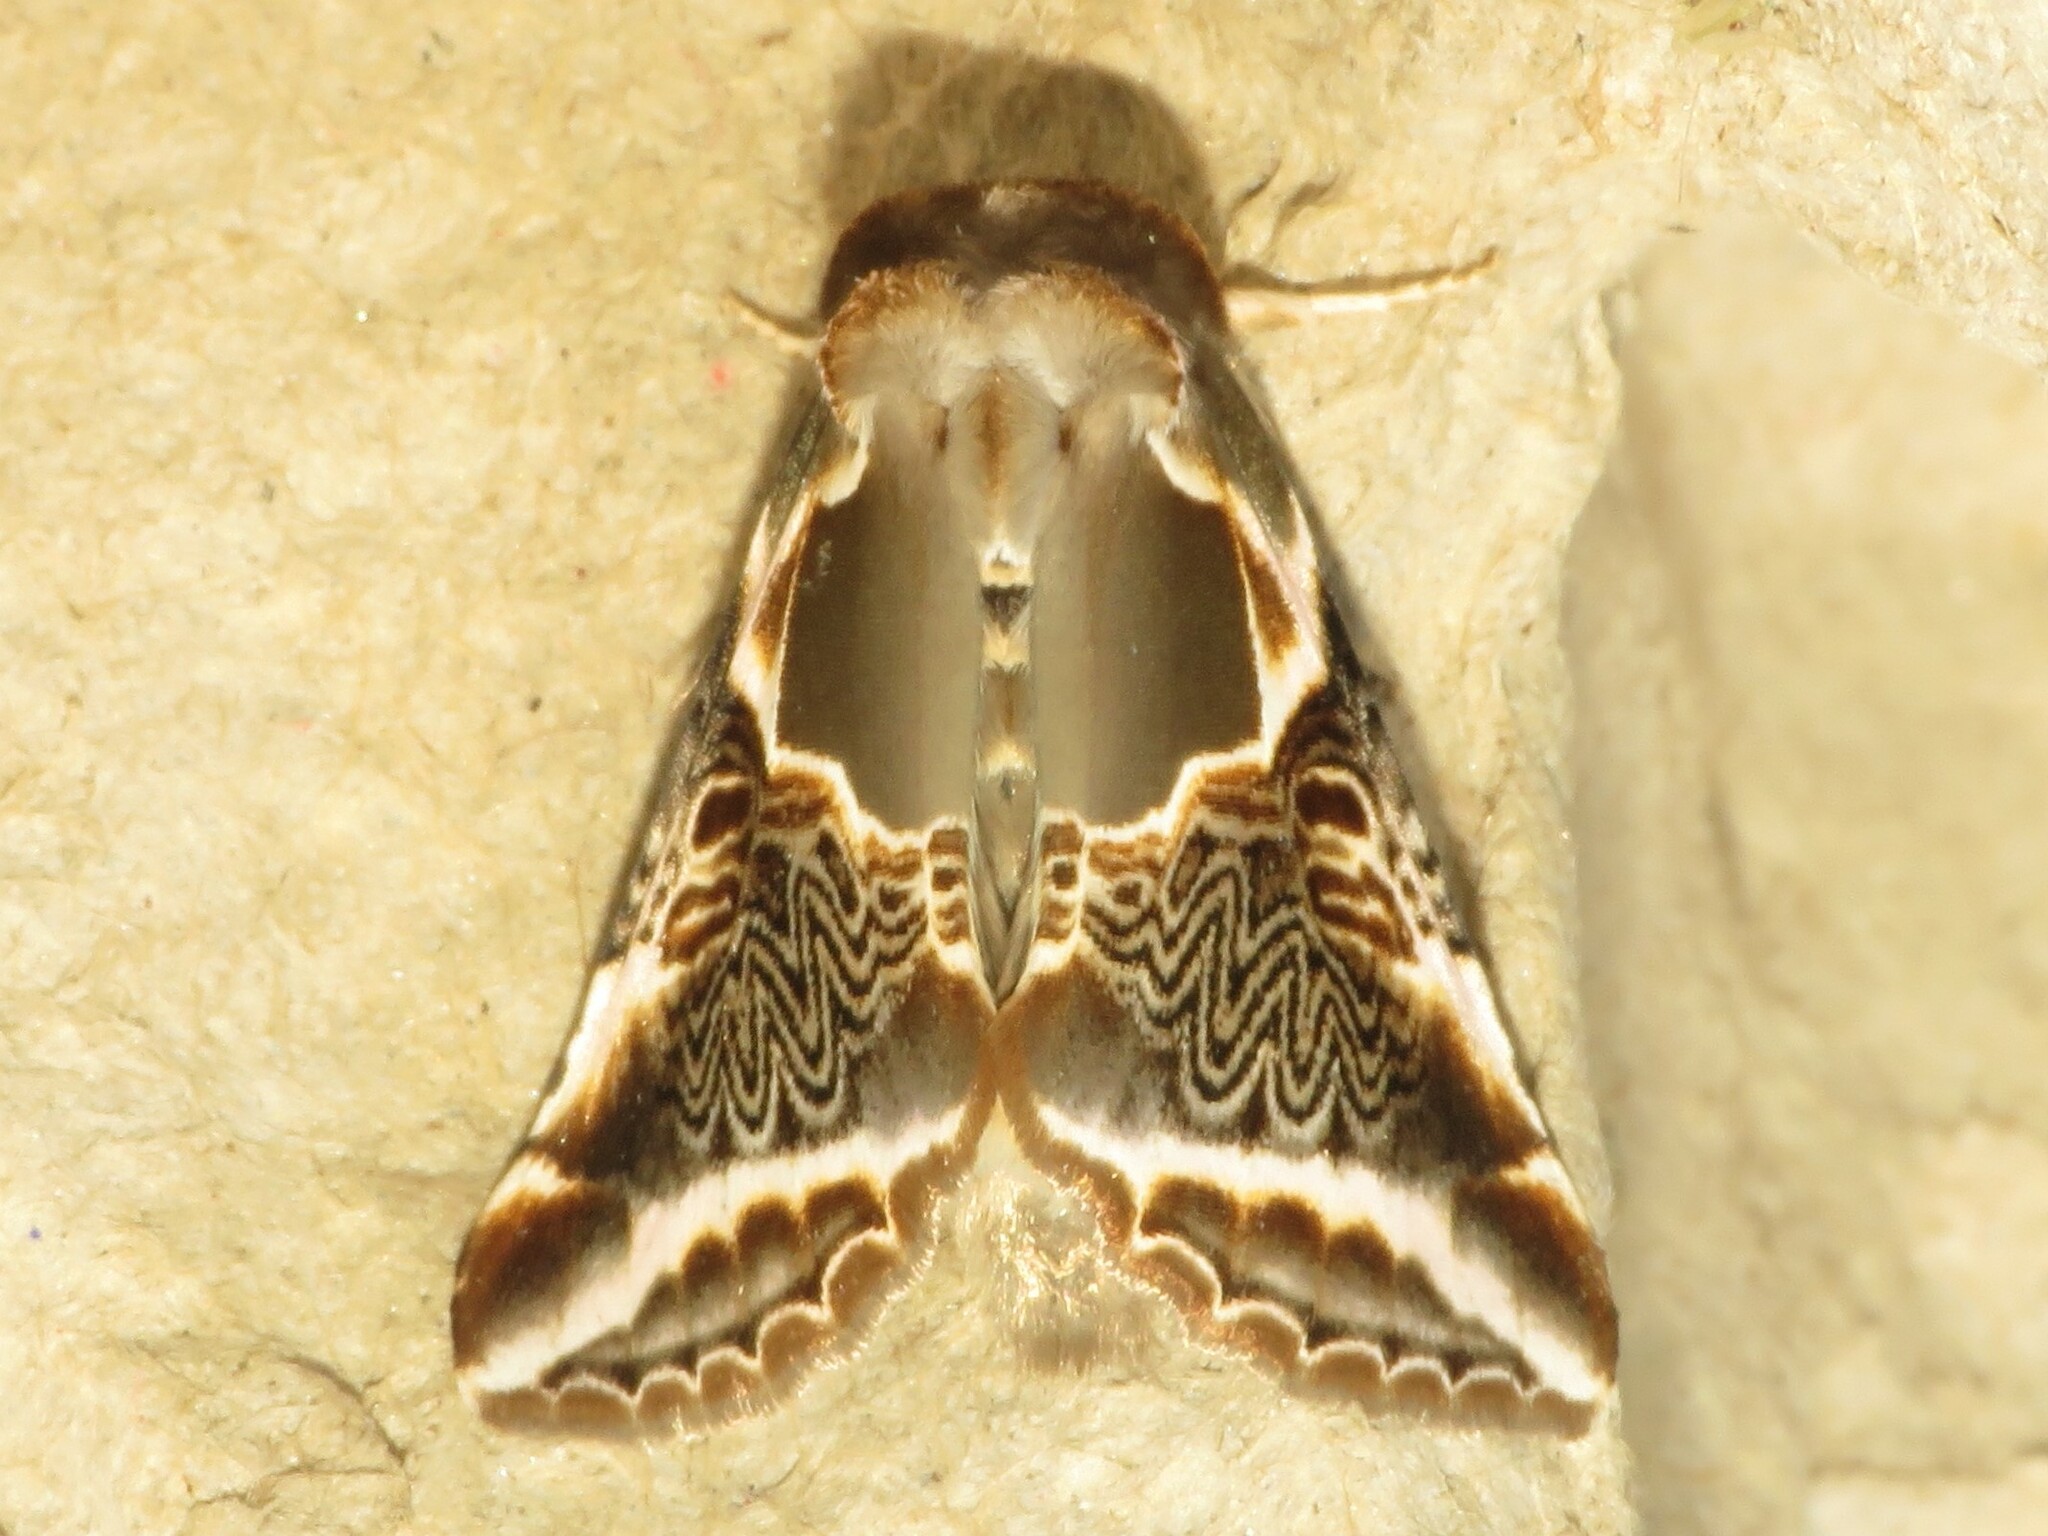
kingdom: Animalia
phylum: Arthropoda
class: Insecta
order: Lepidoptera
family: Drepanidae
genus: Habrosyne
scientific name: Habrosyne scripta
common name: Lettered habrosyne moth
